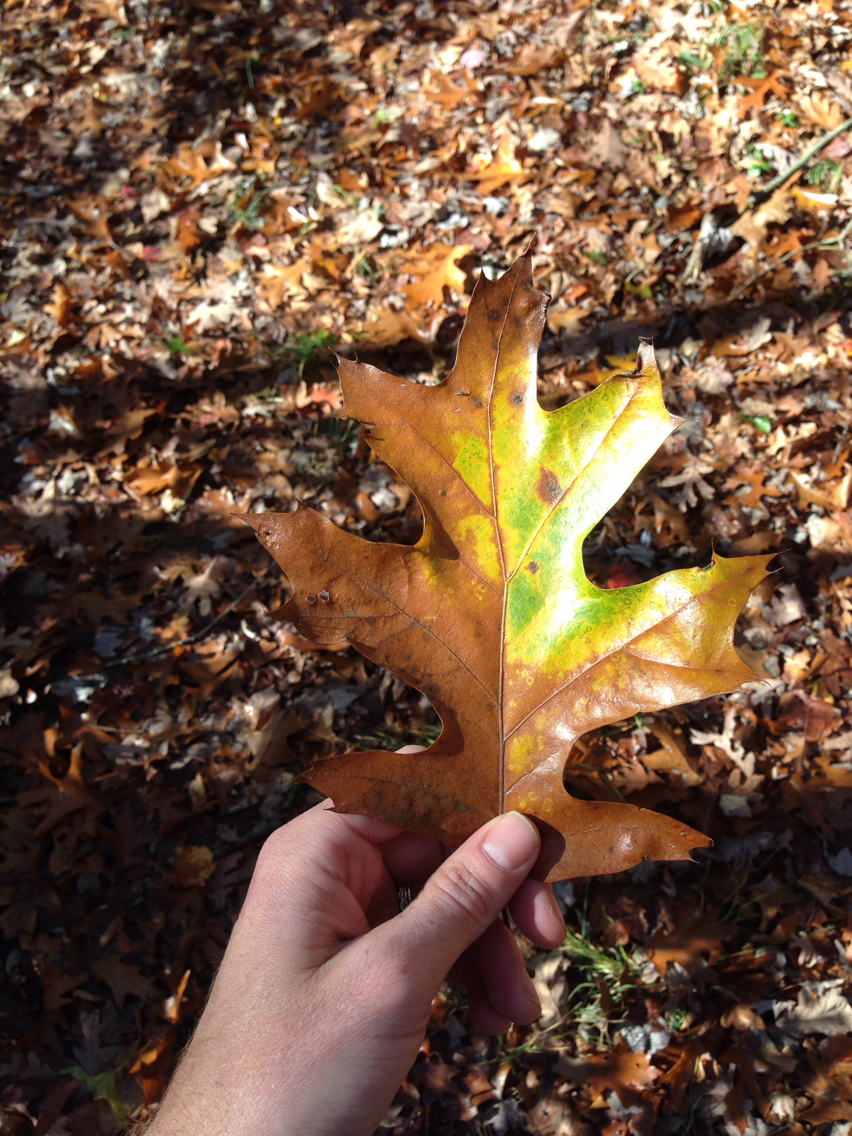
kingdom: Plantae
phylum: Tracheophyta
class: Magnoliopsida
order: Fagales
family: Fagaceae
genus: Quercus
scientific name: Quercus rubra
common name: Red oak
